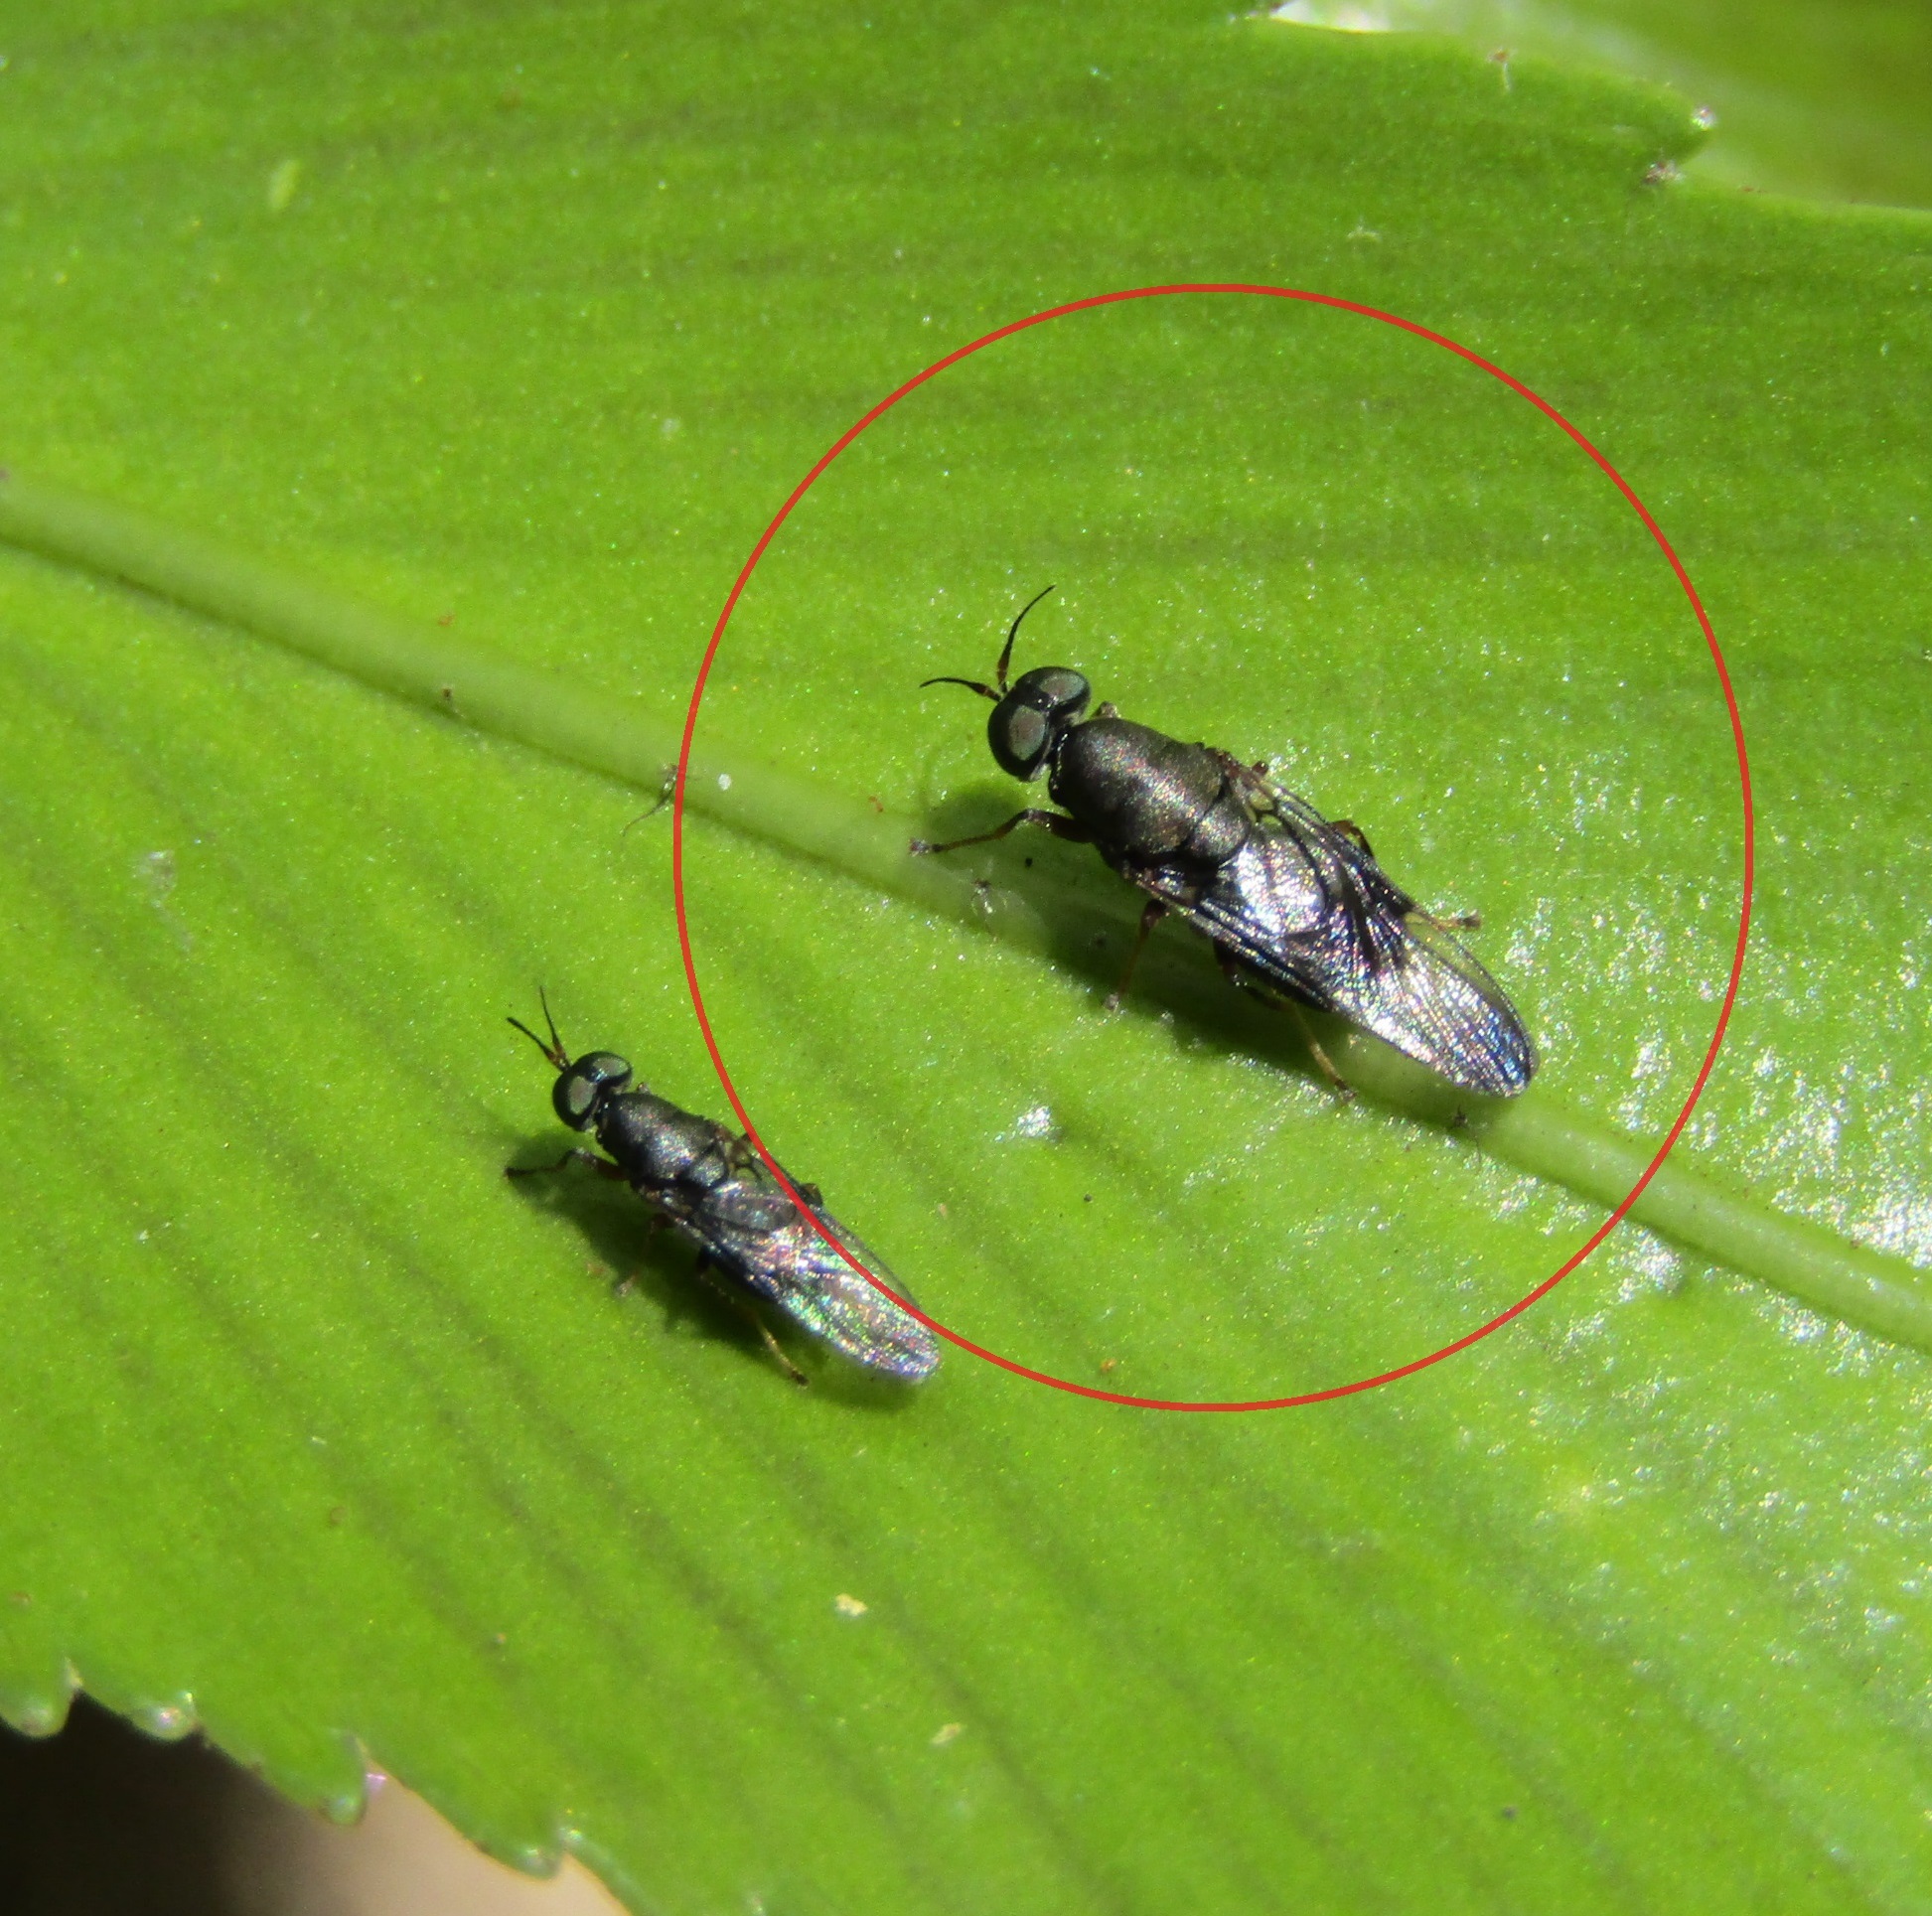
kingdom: Animalia
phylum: Arthropoda
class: Insecta
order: Diptera
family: Stratiomyidae
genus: Dysbiota
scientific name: Dysbiota peregrina
